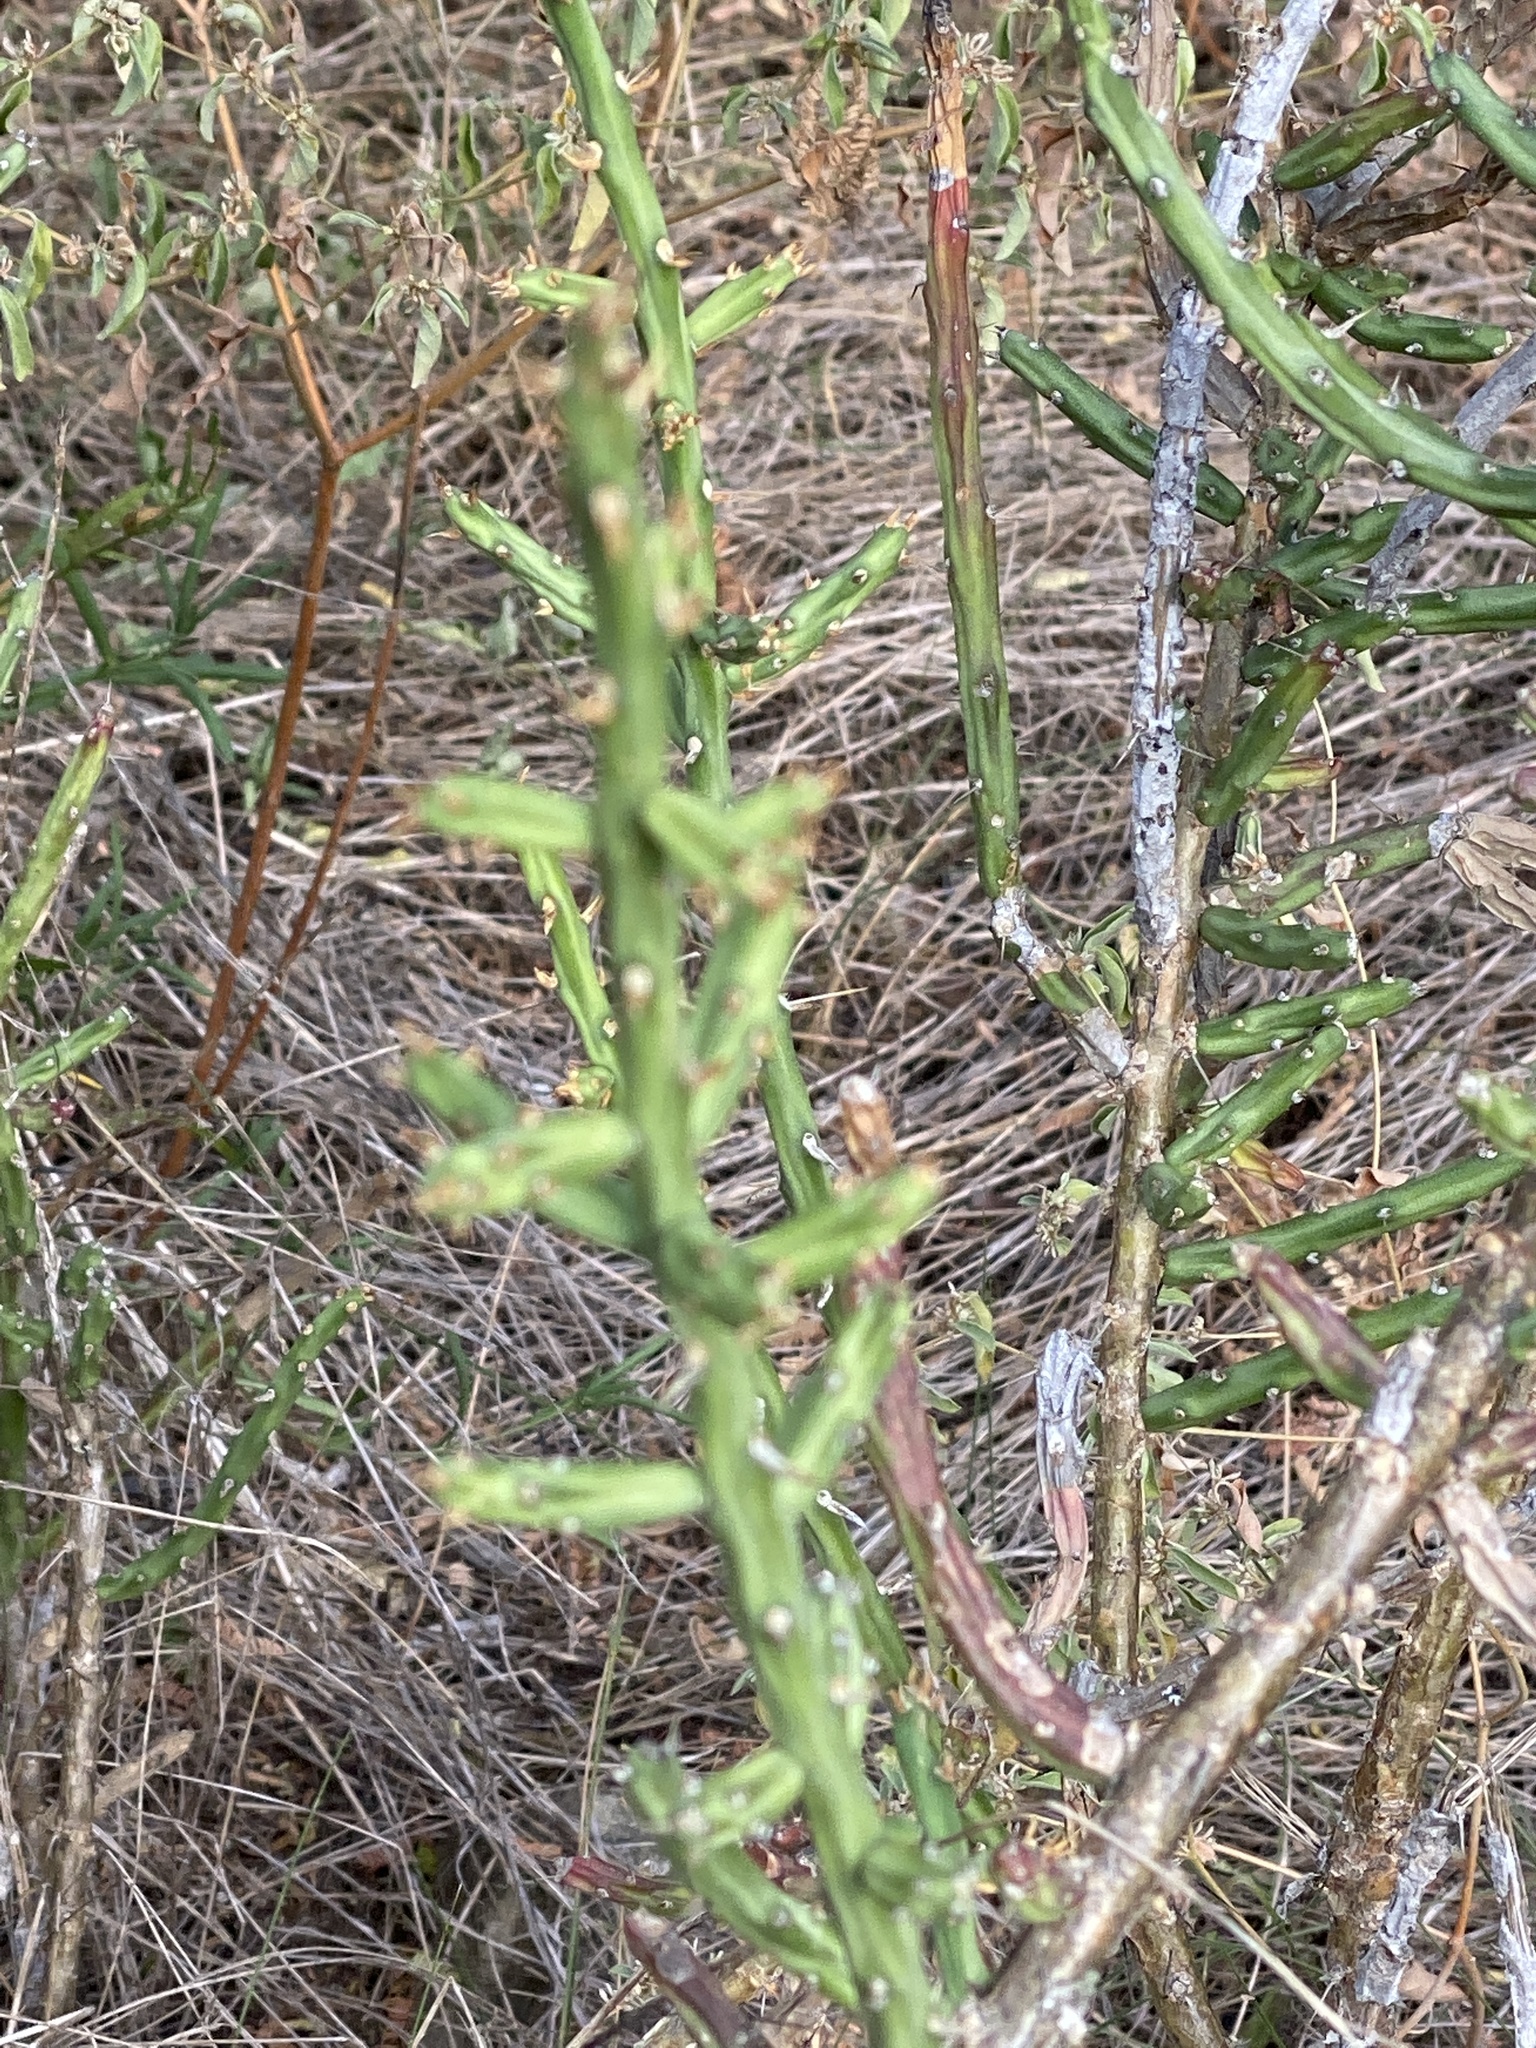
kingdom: Plantae
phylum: Tracheophyta
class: Magnoliopsida
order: Caryophyllales
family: Cactaceae
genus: Cylindropuntia
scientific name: Cylindropuntia leptocaulis
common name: Christmas cactus
